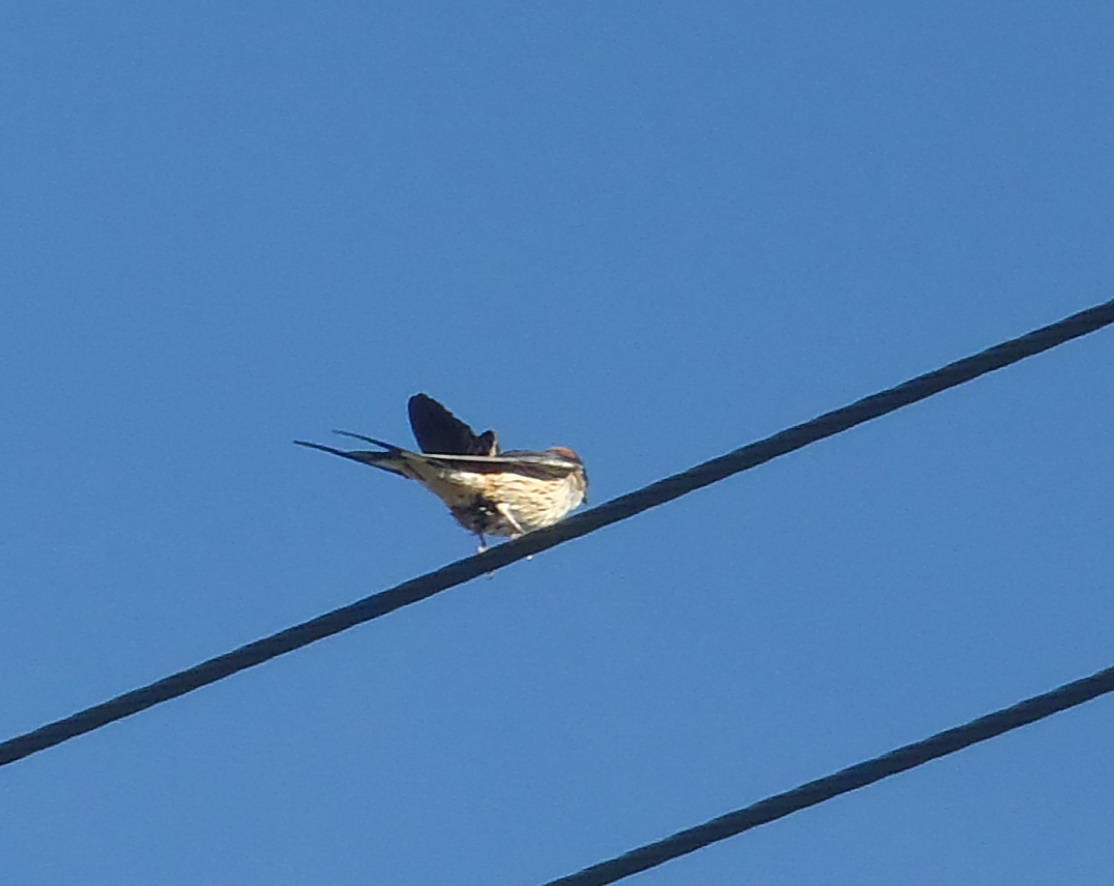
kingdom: Animalia
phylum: Chordata
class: Aves
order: Passeriformes
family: Hirundinidae
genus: Cecropis
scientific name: Cecropis cucullata
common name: Greater striped-swallow
